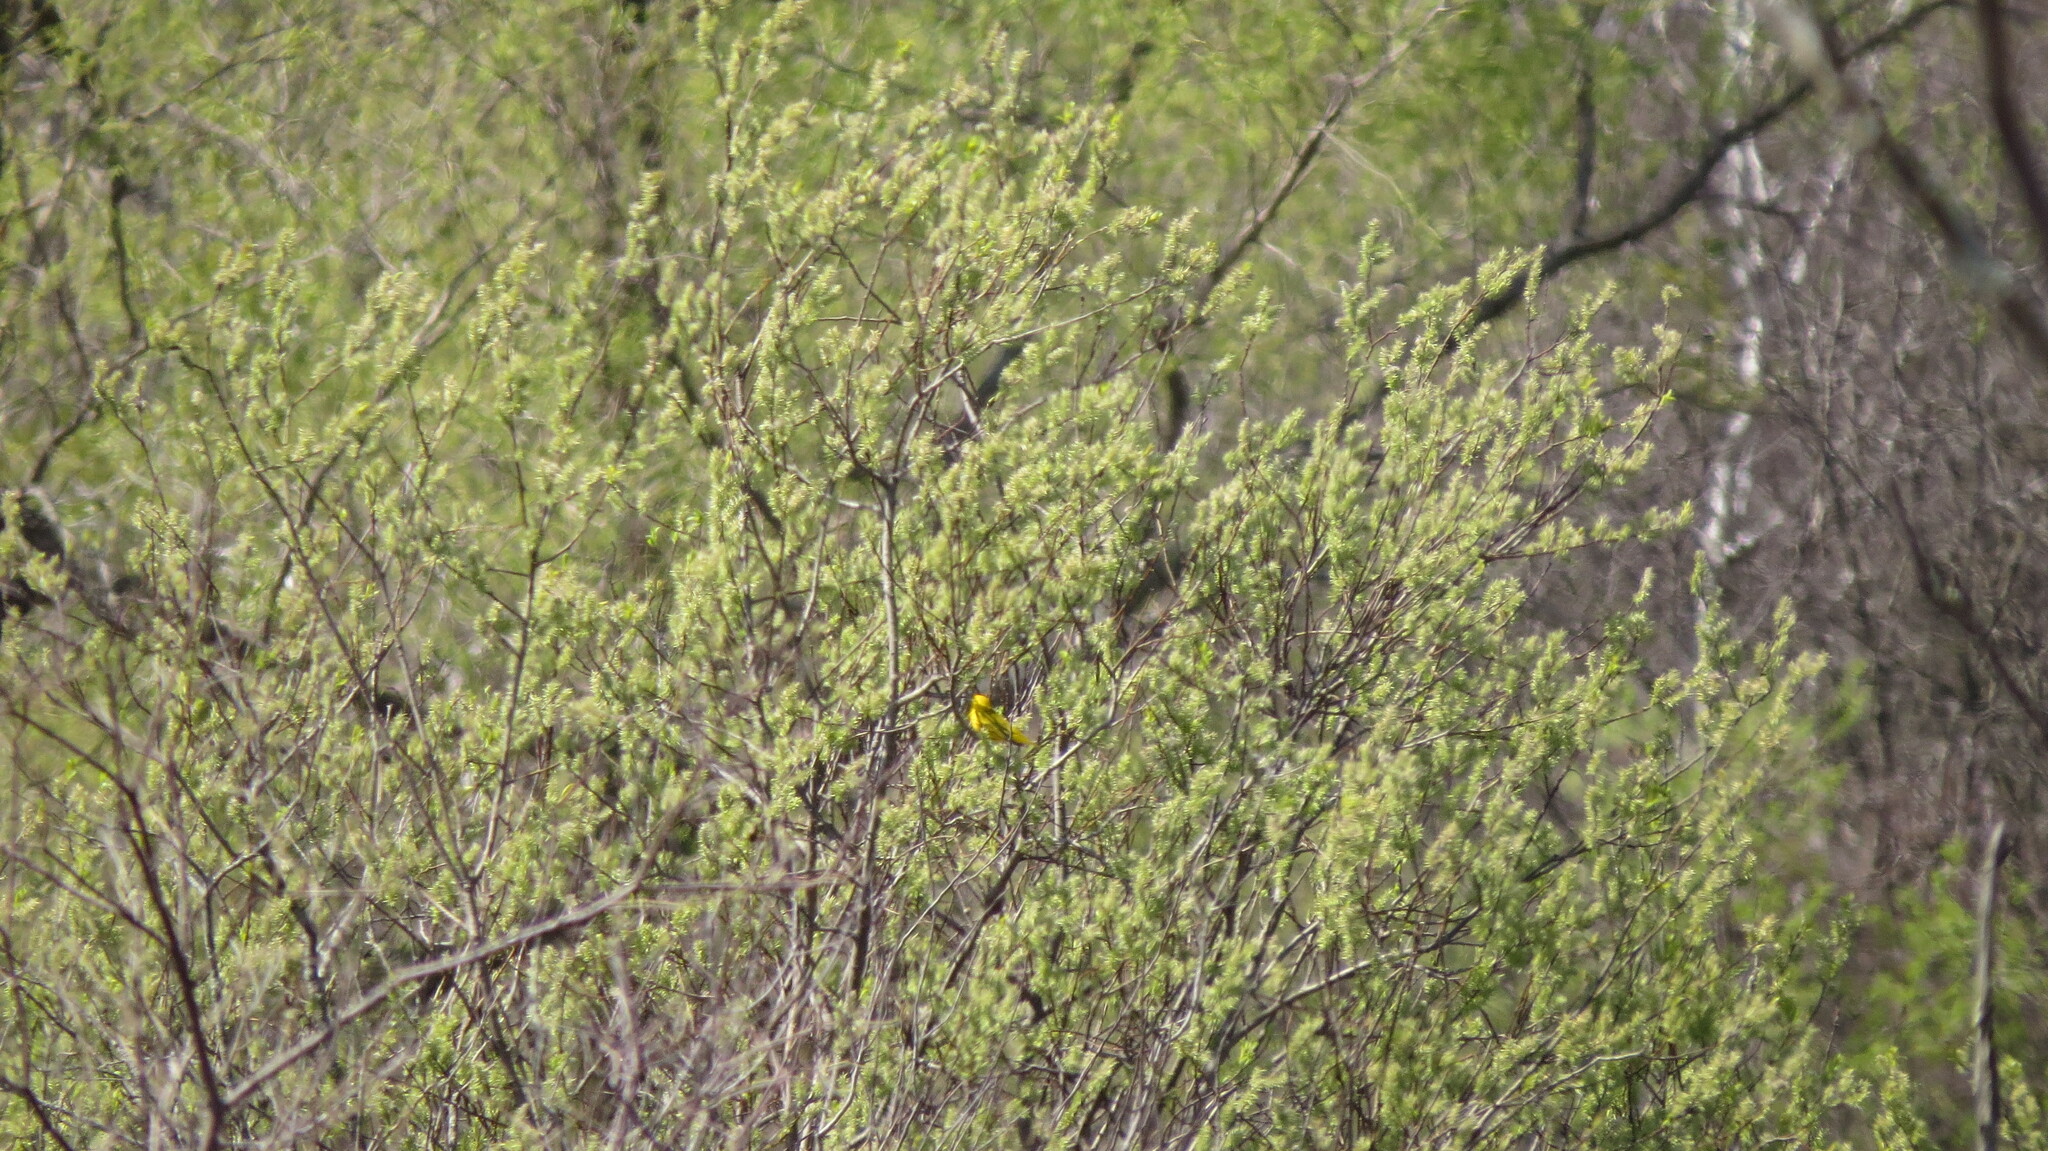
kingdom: Animalia
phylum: Chordata
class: Aves
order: Passeriformes
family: Parulidae
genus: Setophaga
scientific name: Setophaga petechia
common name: Yellow warbler
